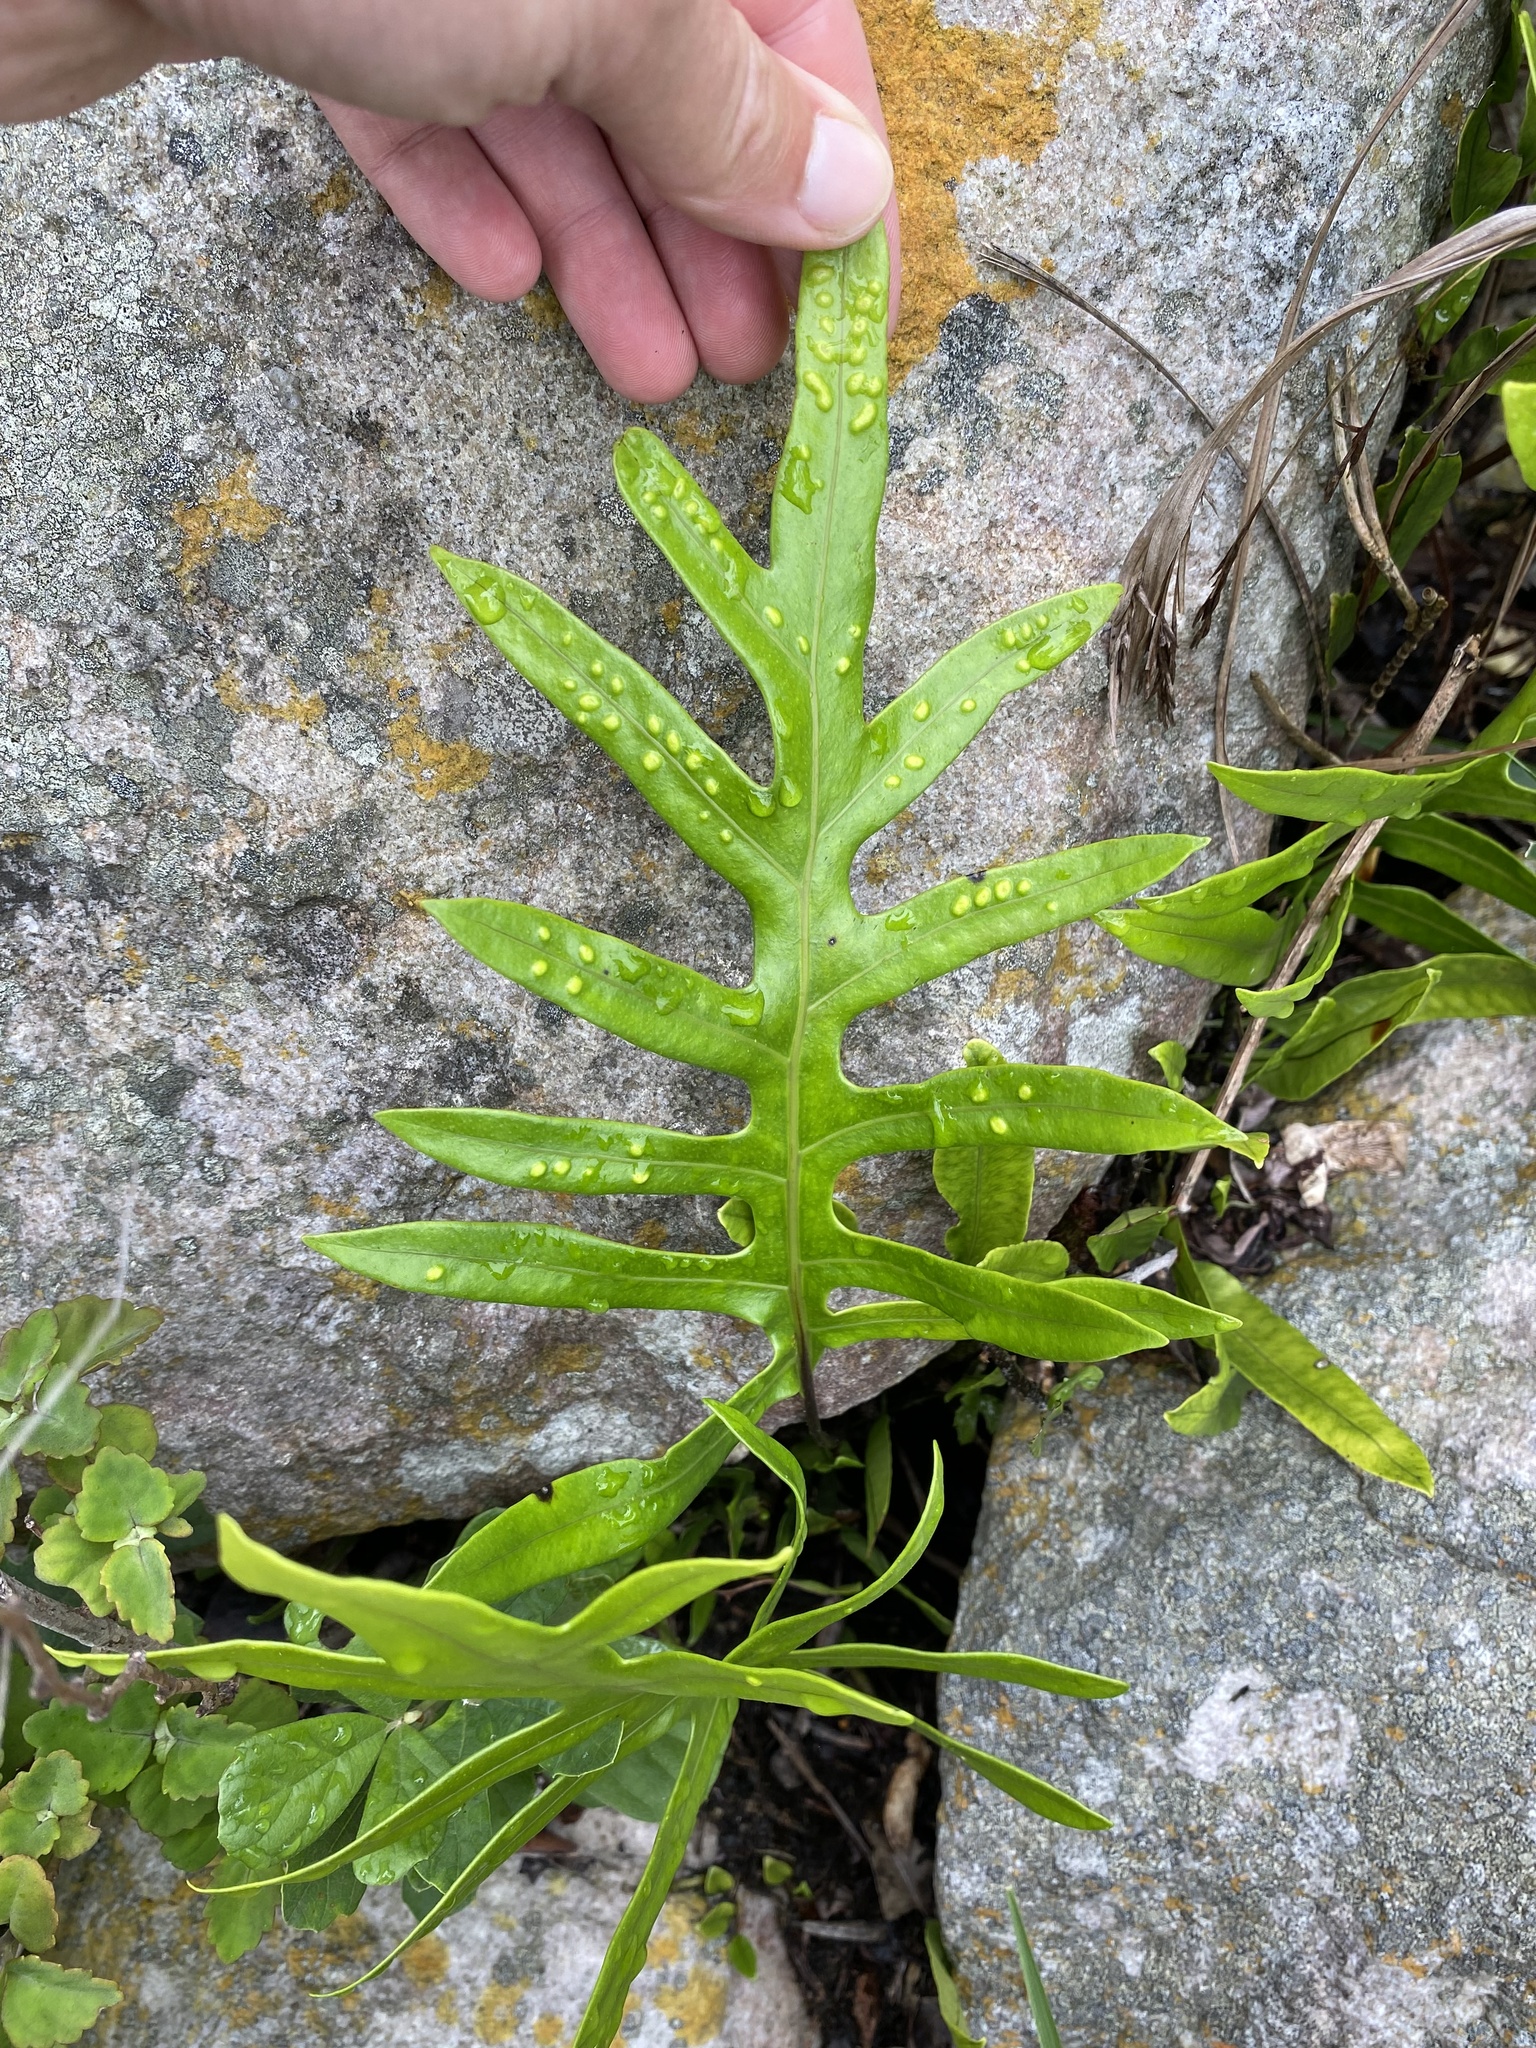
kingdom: Plantae
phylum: Tracheophyta
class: Polypodiopsida
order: Polypodiales
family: Polypodiaceae
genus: Microsorum
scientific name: Microsorum scolopendria
